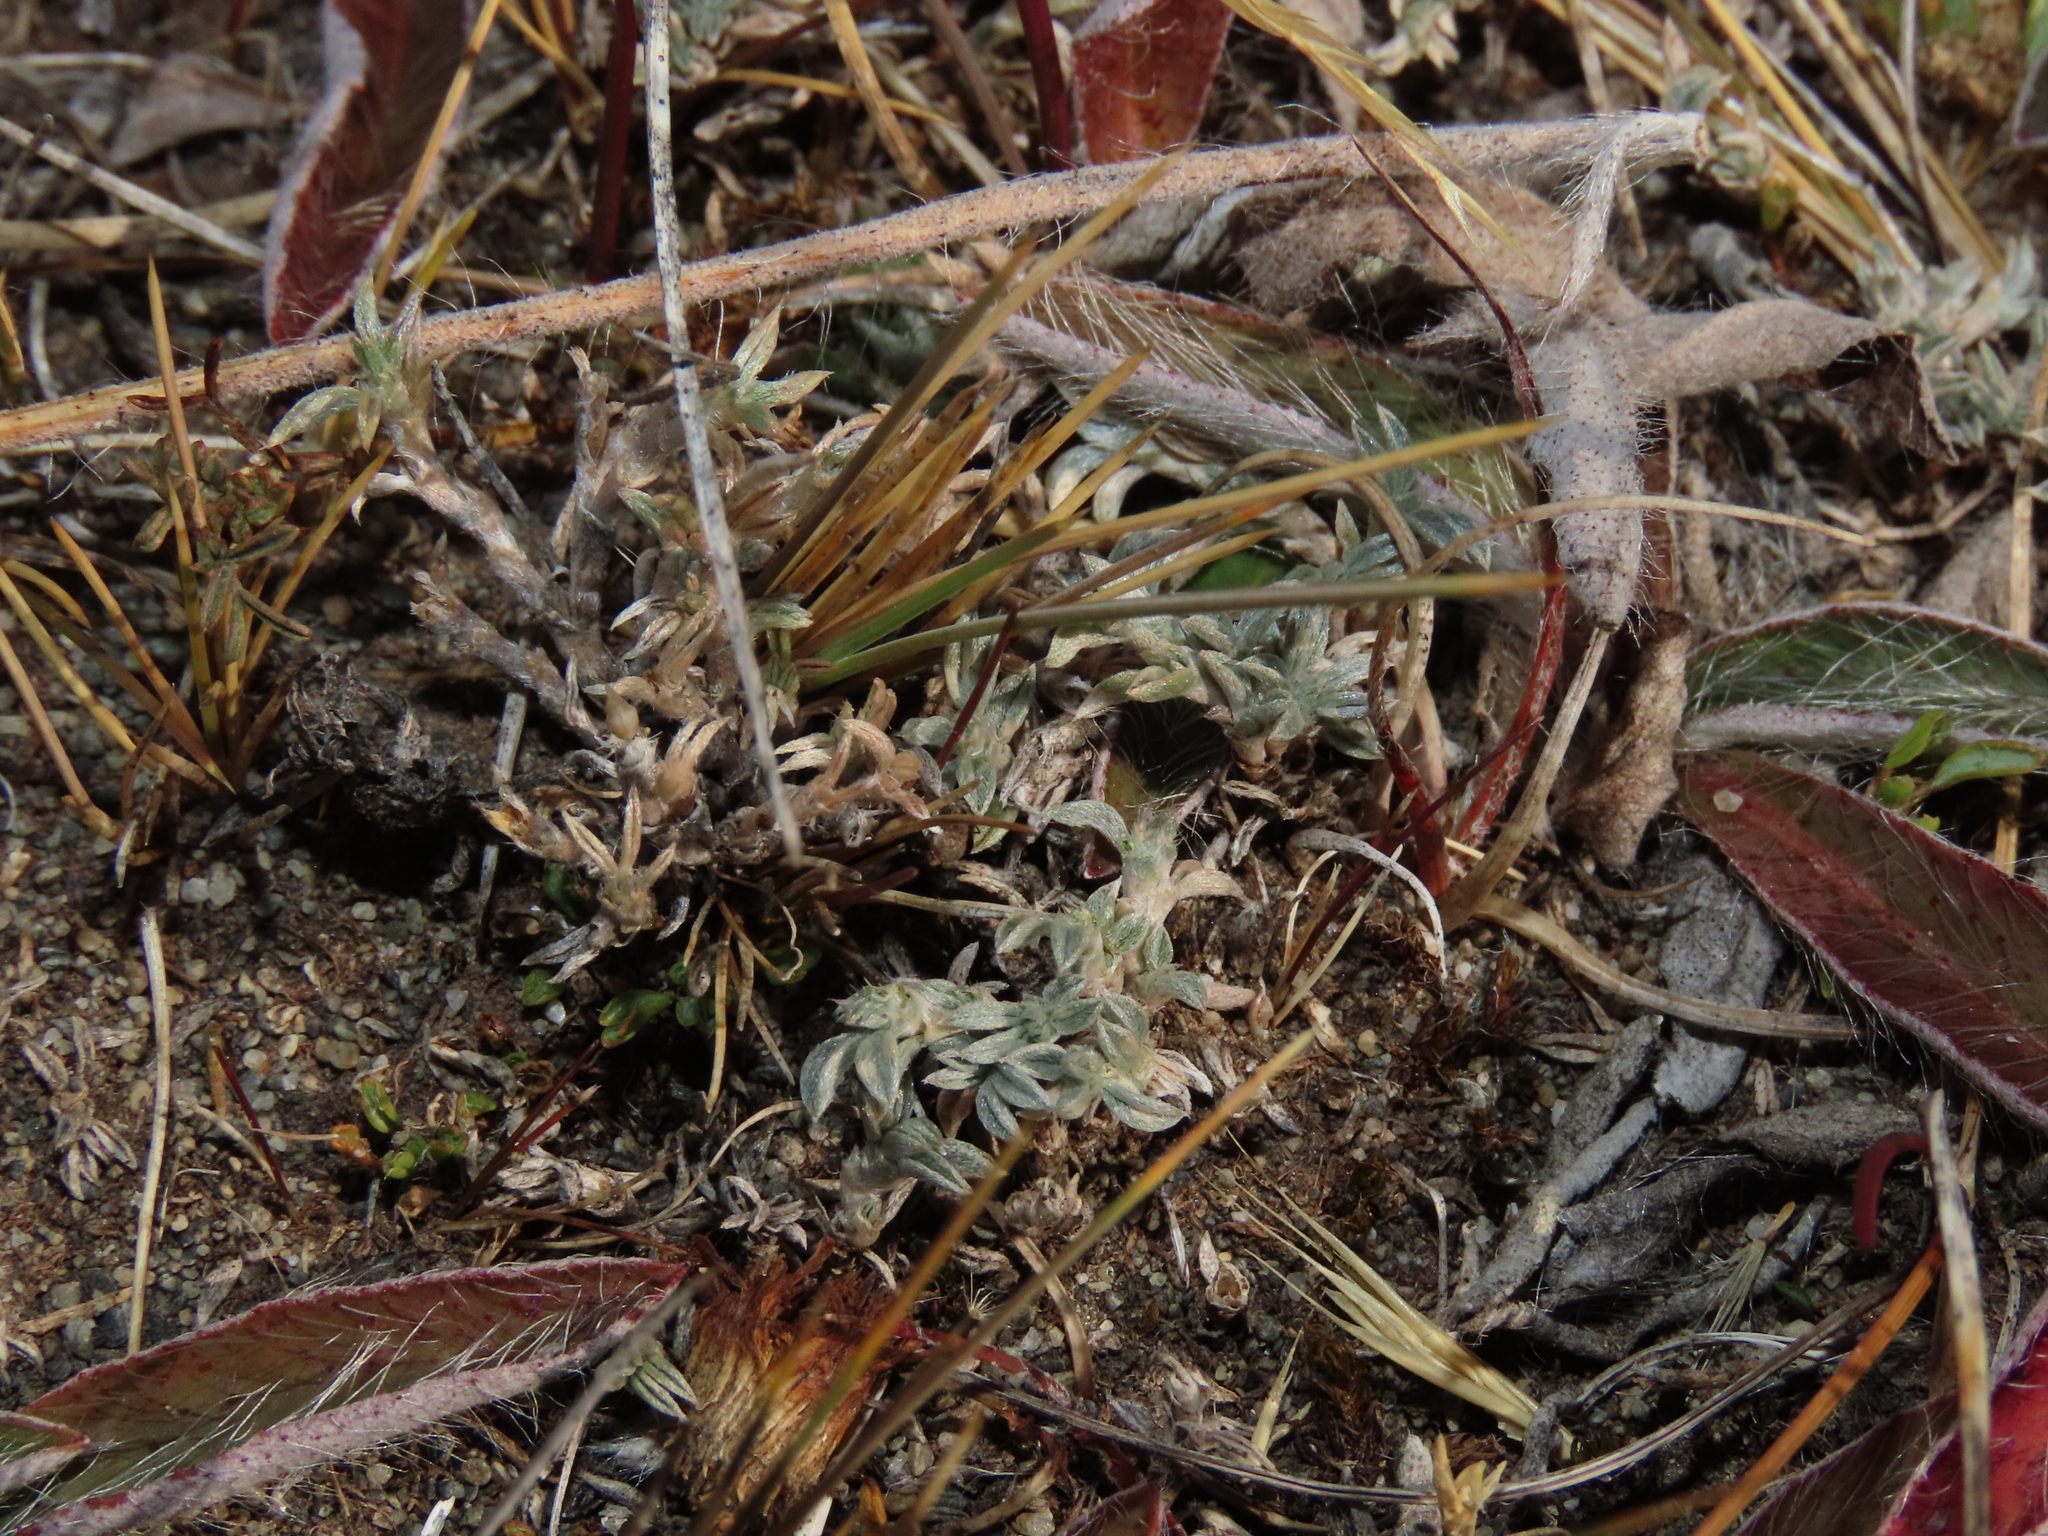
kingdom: Plantae
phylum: Tracheophyta
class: Magnoliopsida
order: Fabales
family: Fabaceae
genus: Adesmia
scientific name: Adesmia lotoides
